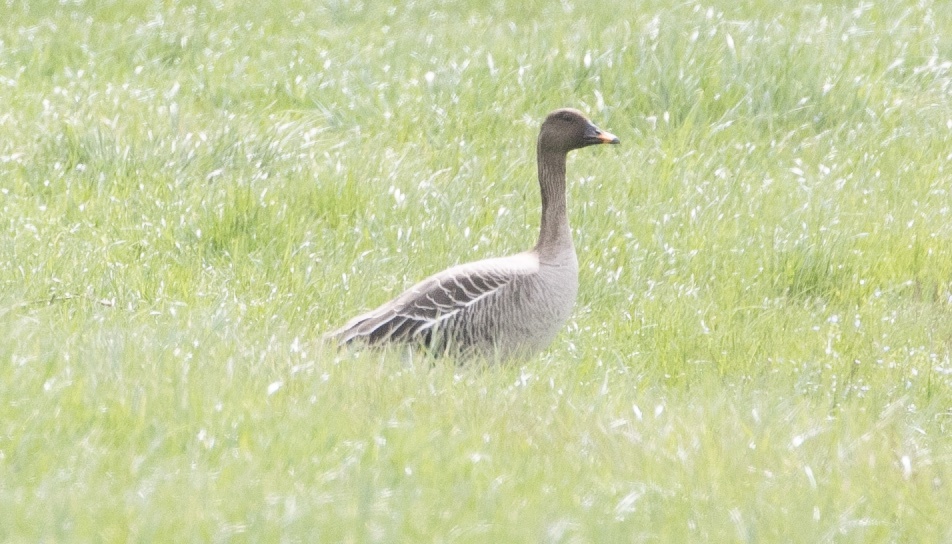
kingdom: Animalia
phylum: Chordata
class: Aves
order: Anseriformes
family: Anatidae
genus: Anser
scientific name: Anser serrirostris
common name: Tundra bean goose
